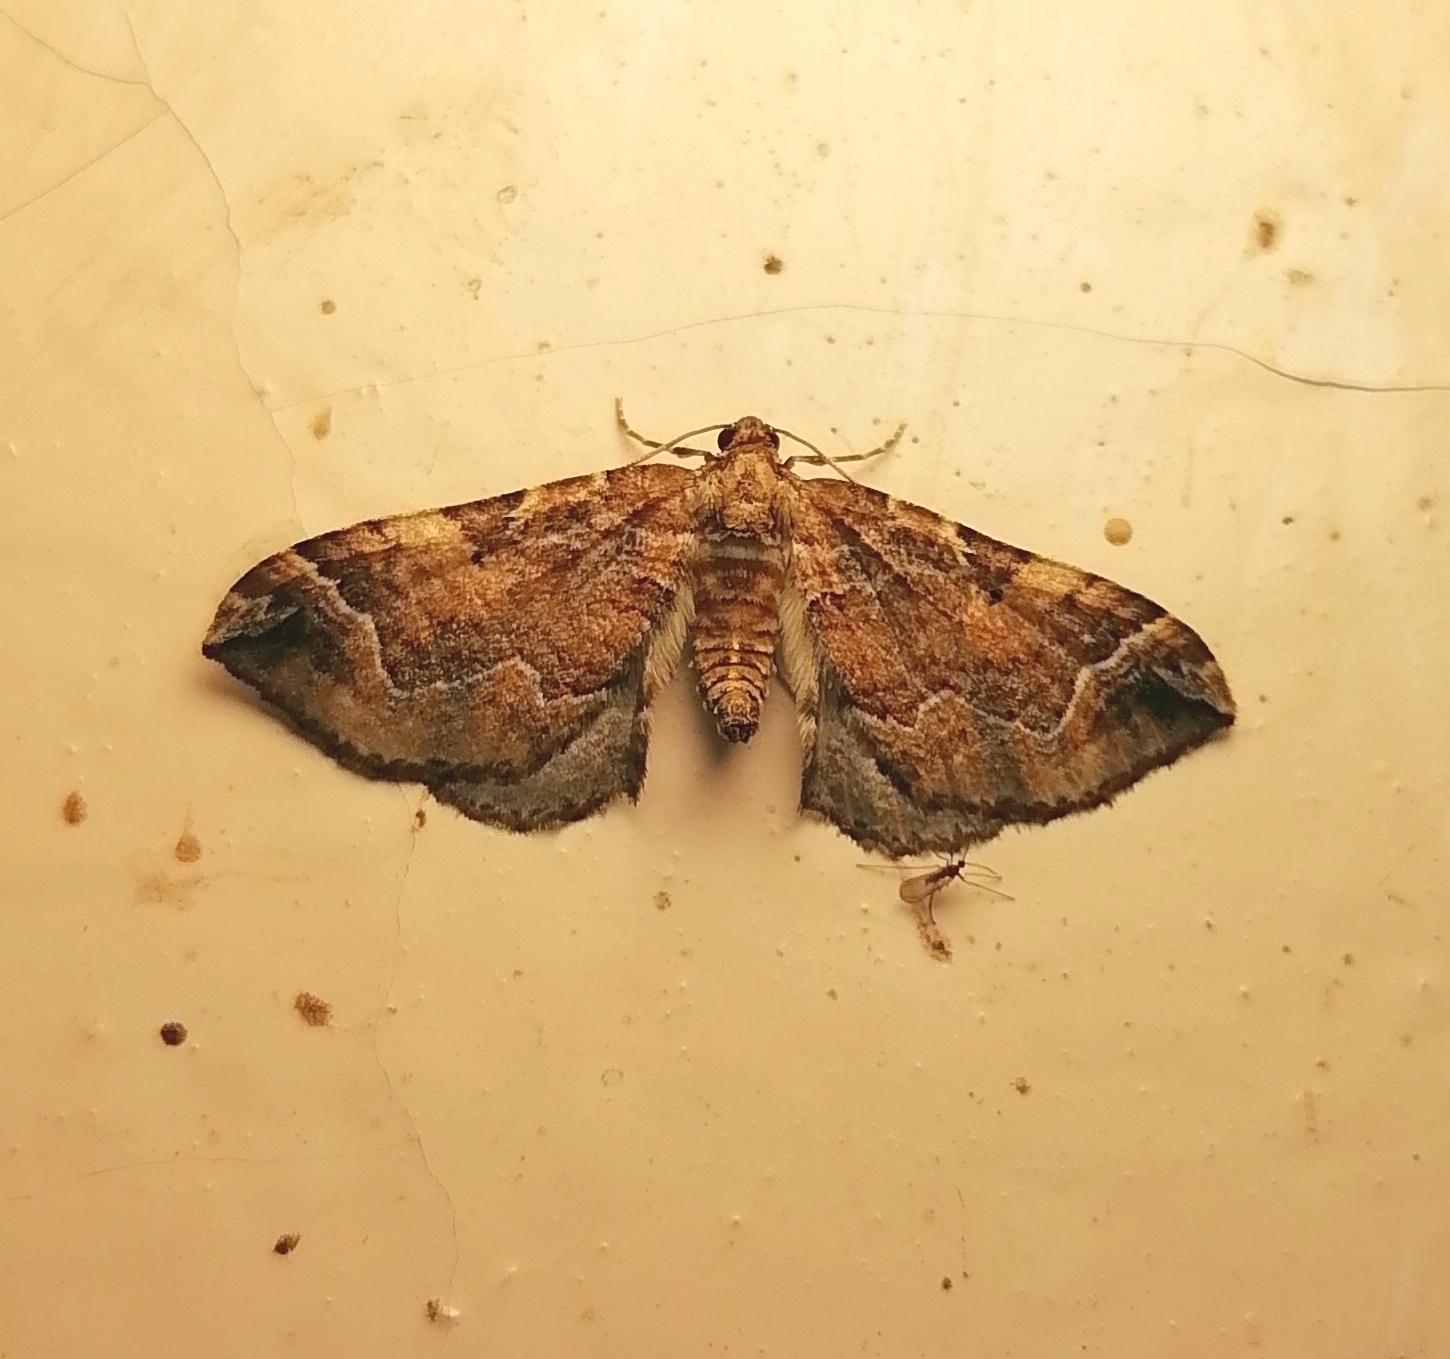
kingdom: Animalia
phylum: Arthropoda
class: Insecta
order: Lepidoptera
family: Geometridae
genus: Pelurga
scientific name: Pelurga comitata
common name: Dark spinach
